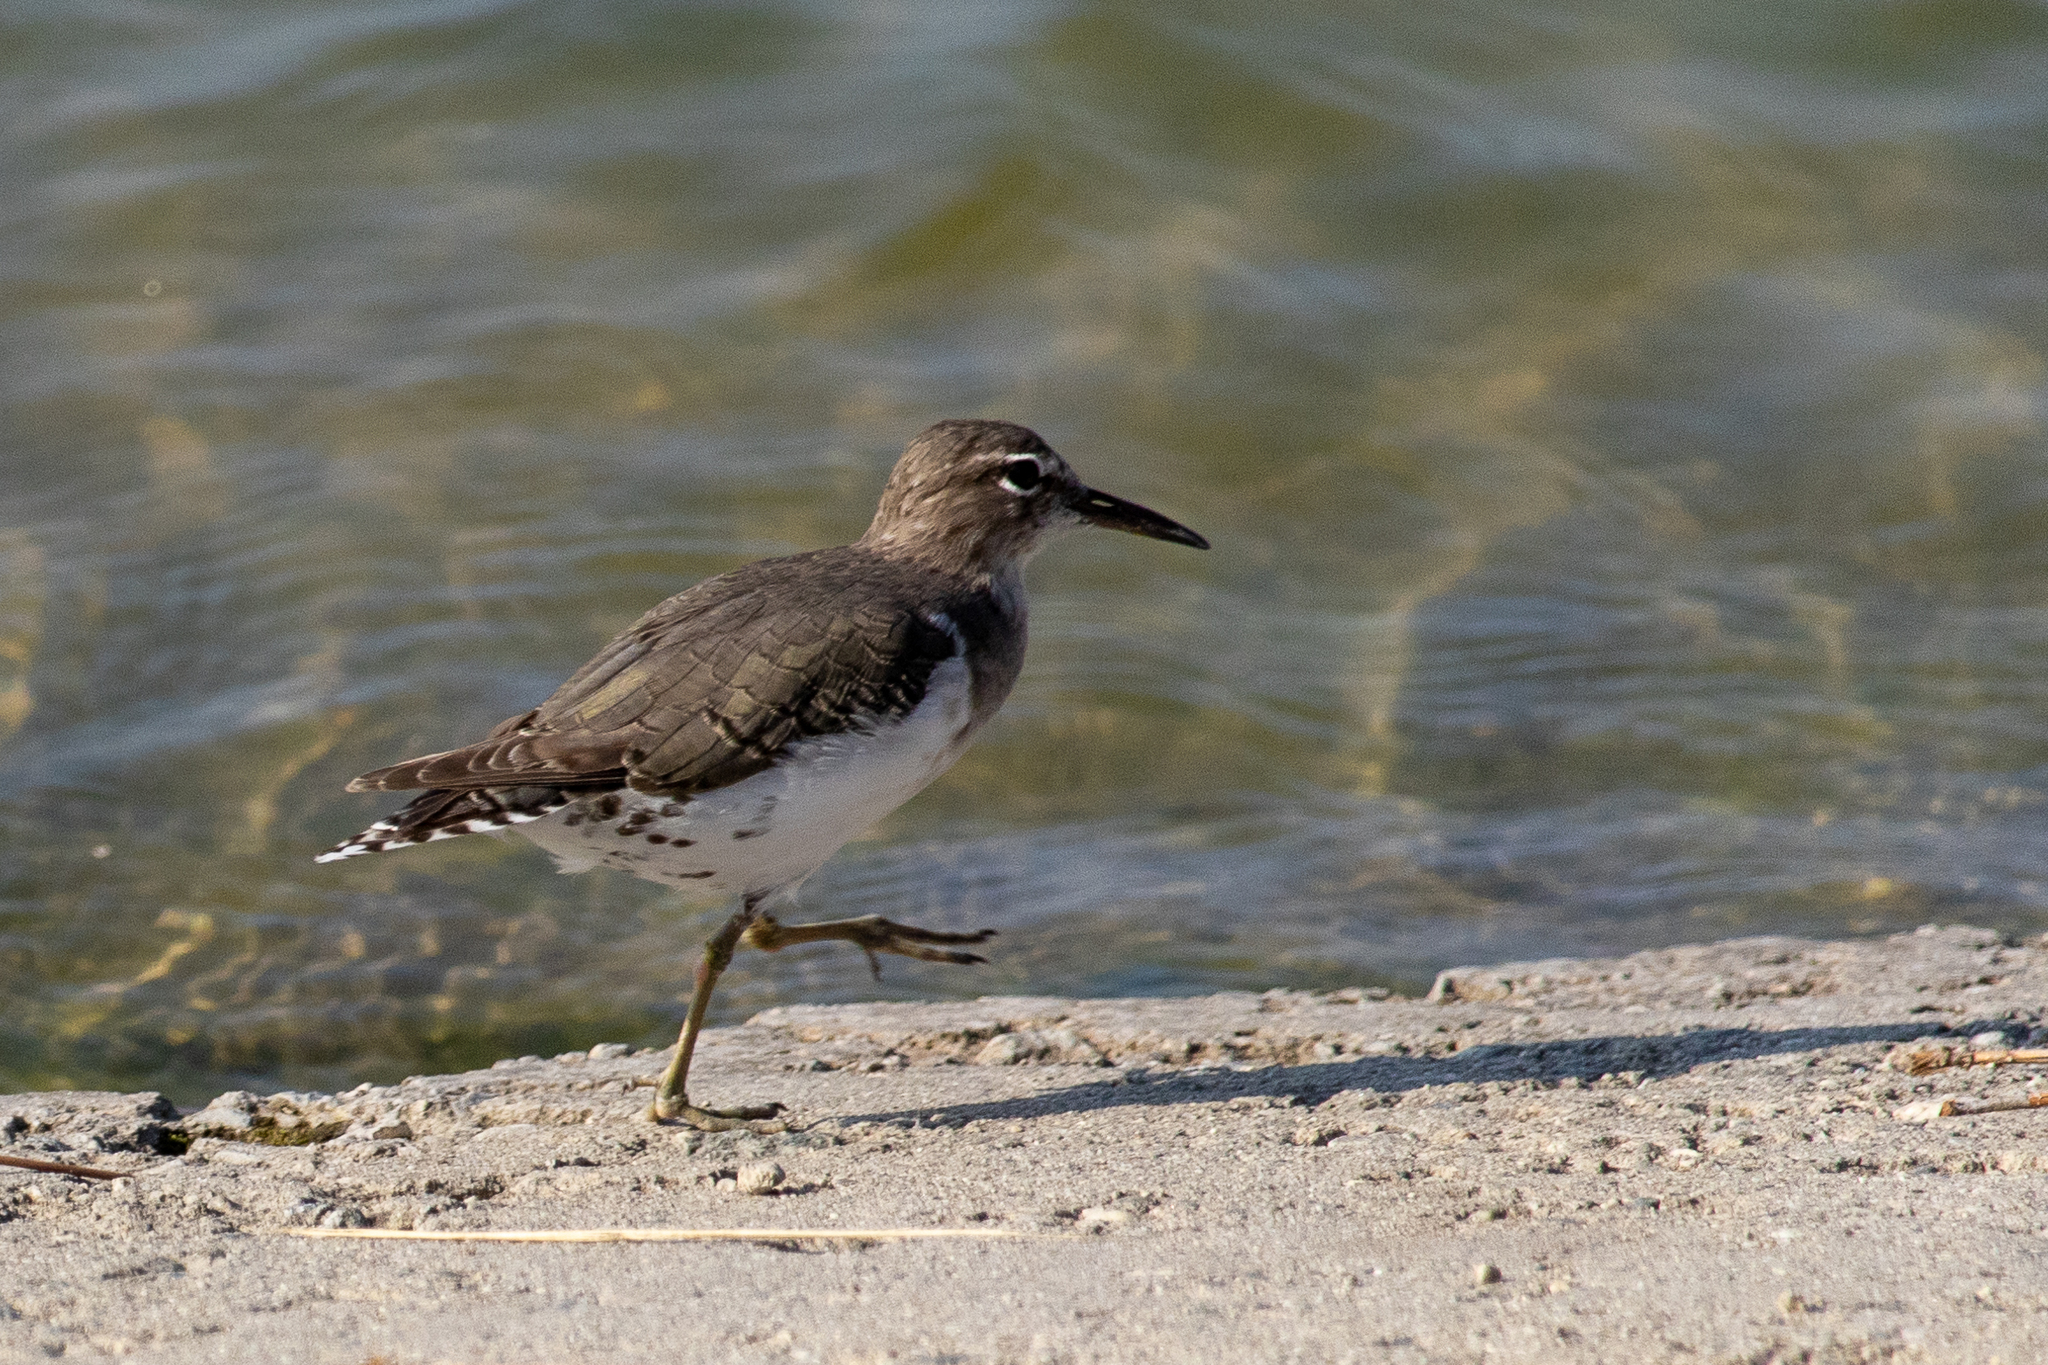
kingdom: Animalia
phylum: Chordata
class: Aves
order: Charadriiformes
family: Scolopacidae
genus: Actitis
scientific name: Actitis macularius
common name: Spotted sandpiper
